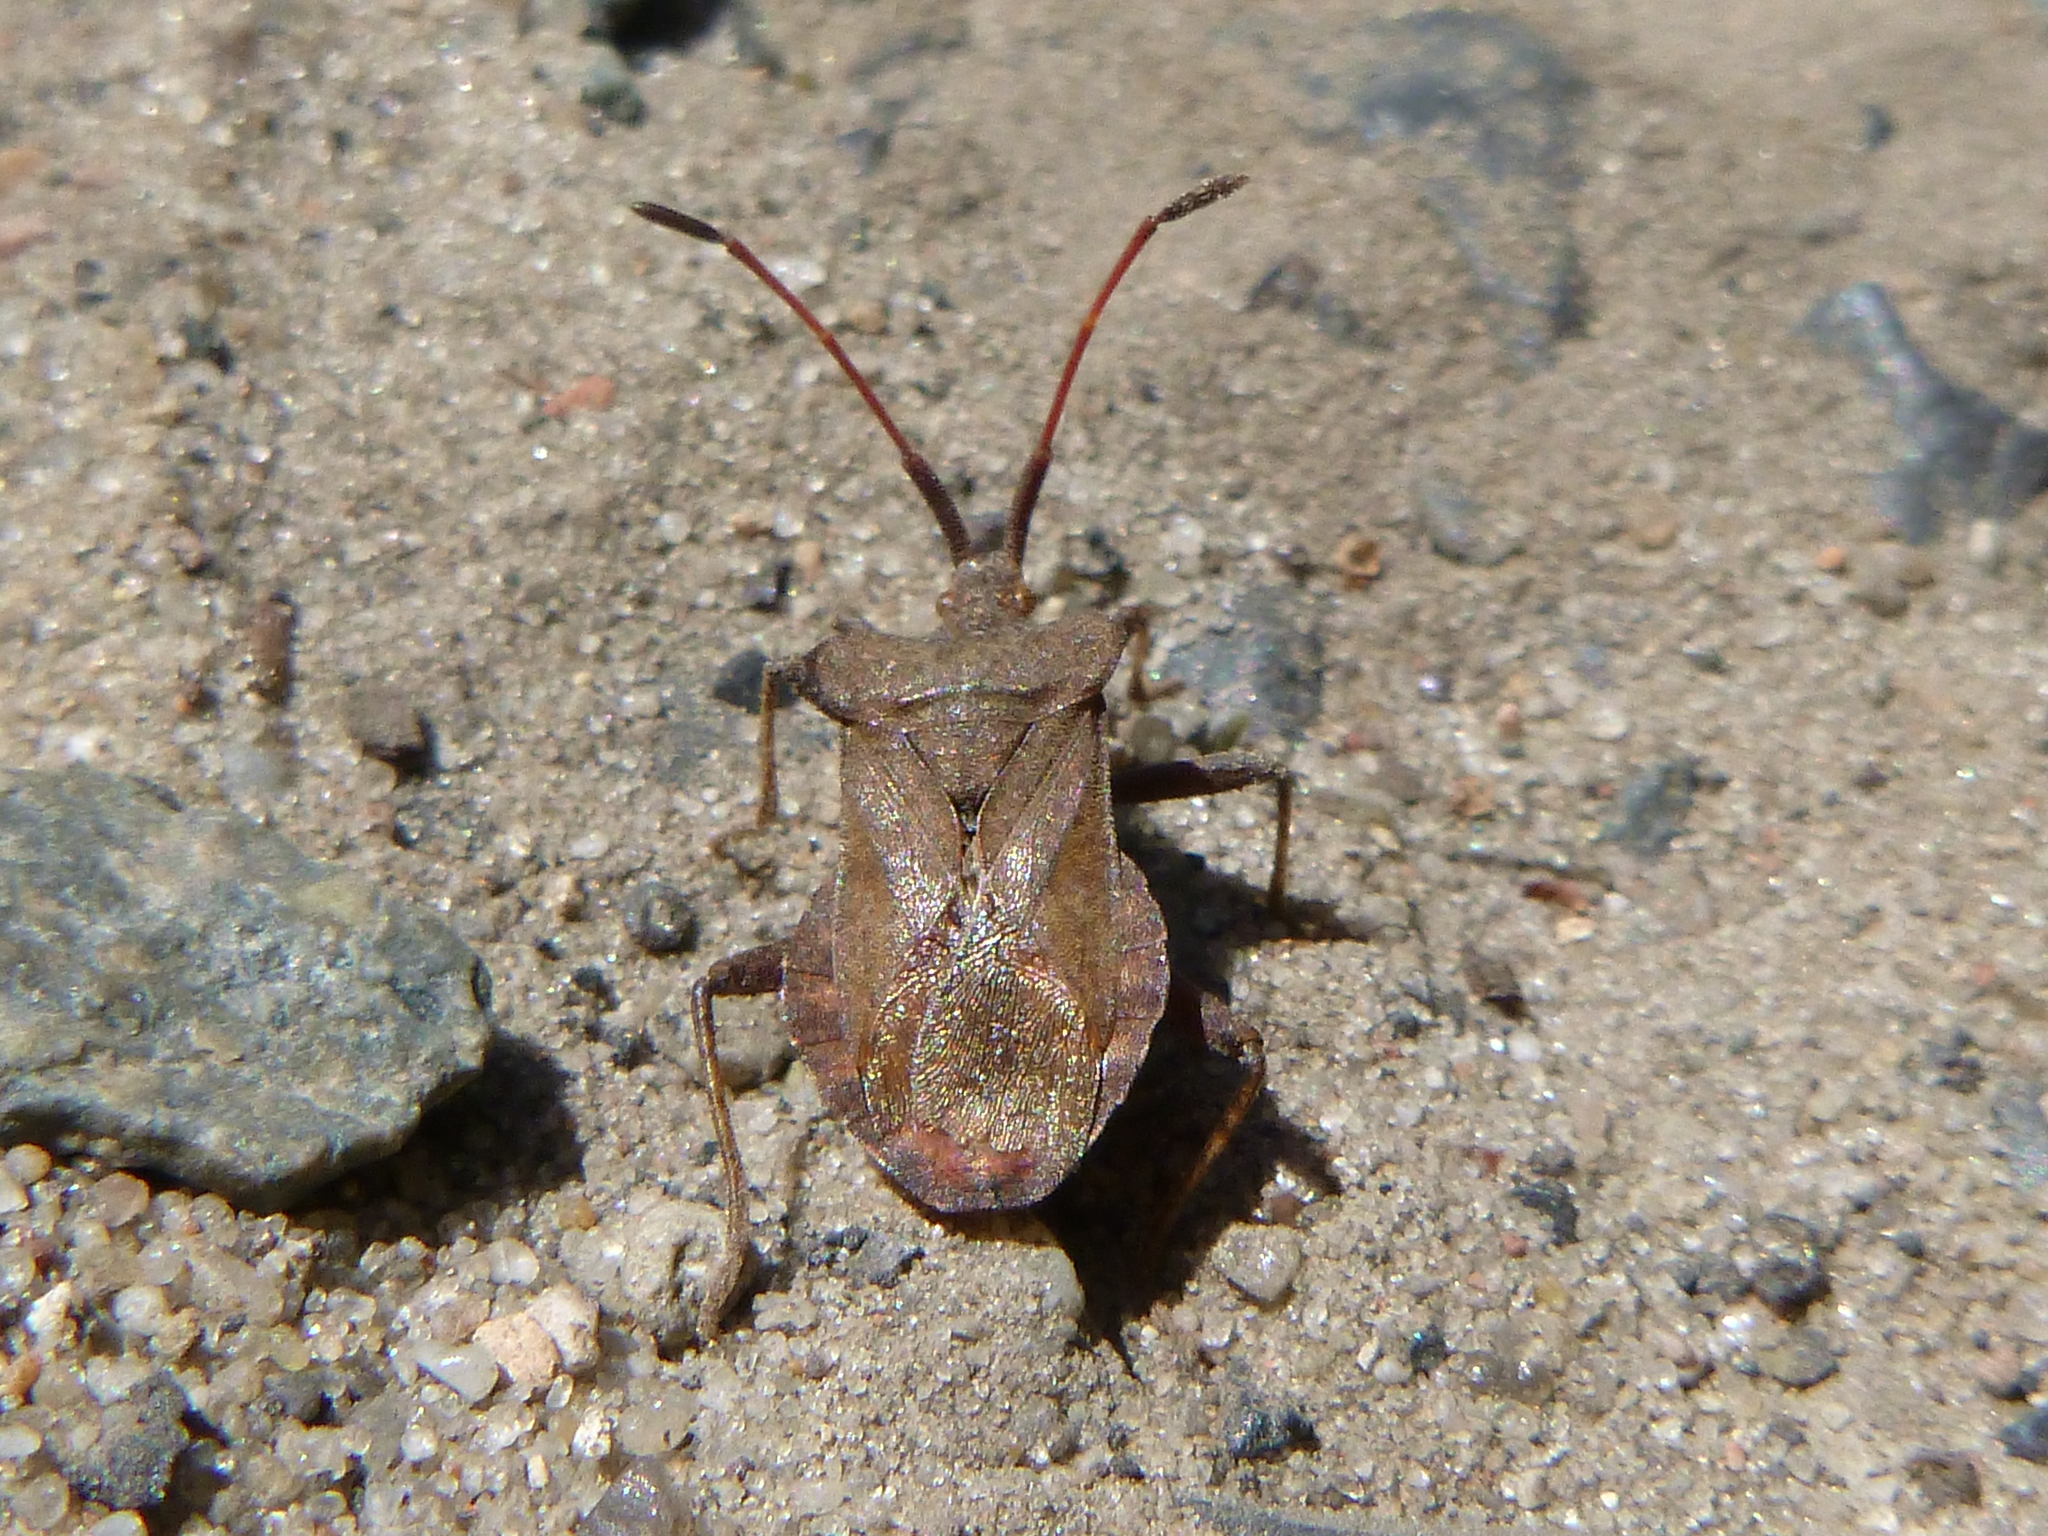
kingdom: Animalia
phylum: Arthropoda
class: Insecta
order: Hemiptera
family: Coreidae
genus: Coreus
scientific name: Coreus marginatus
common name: Dock bug
